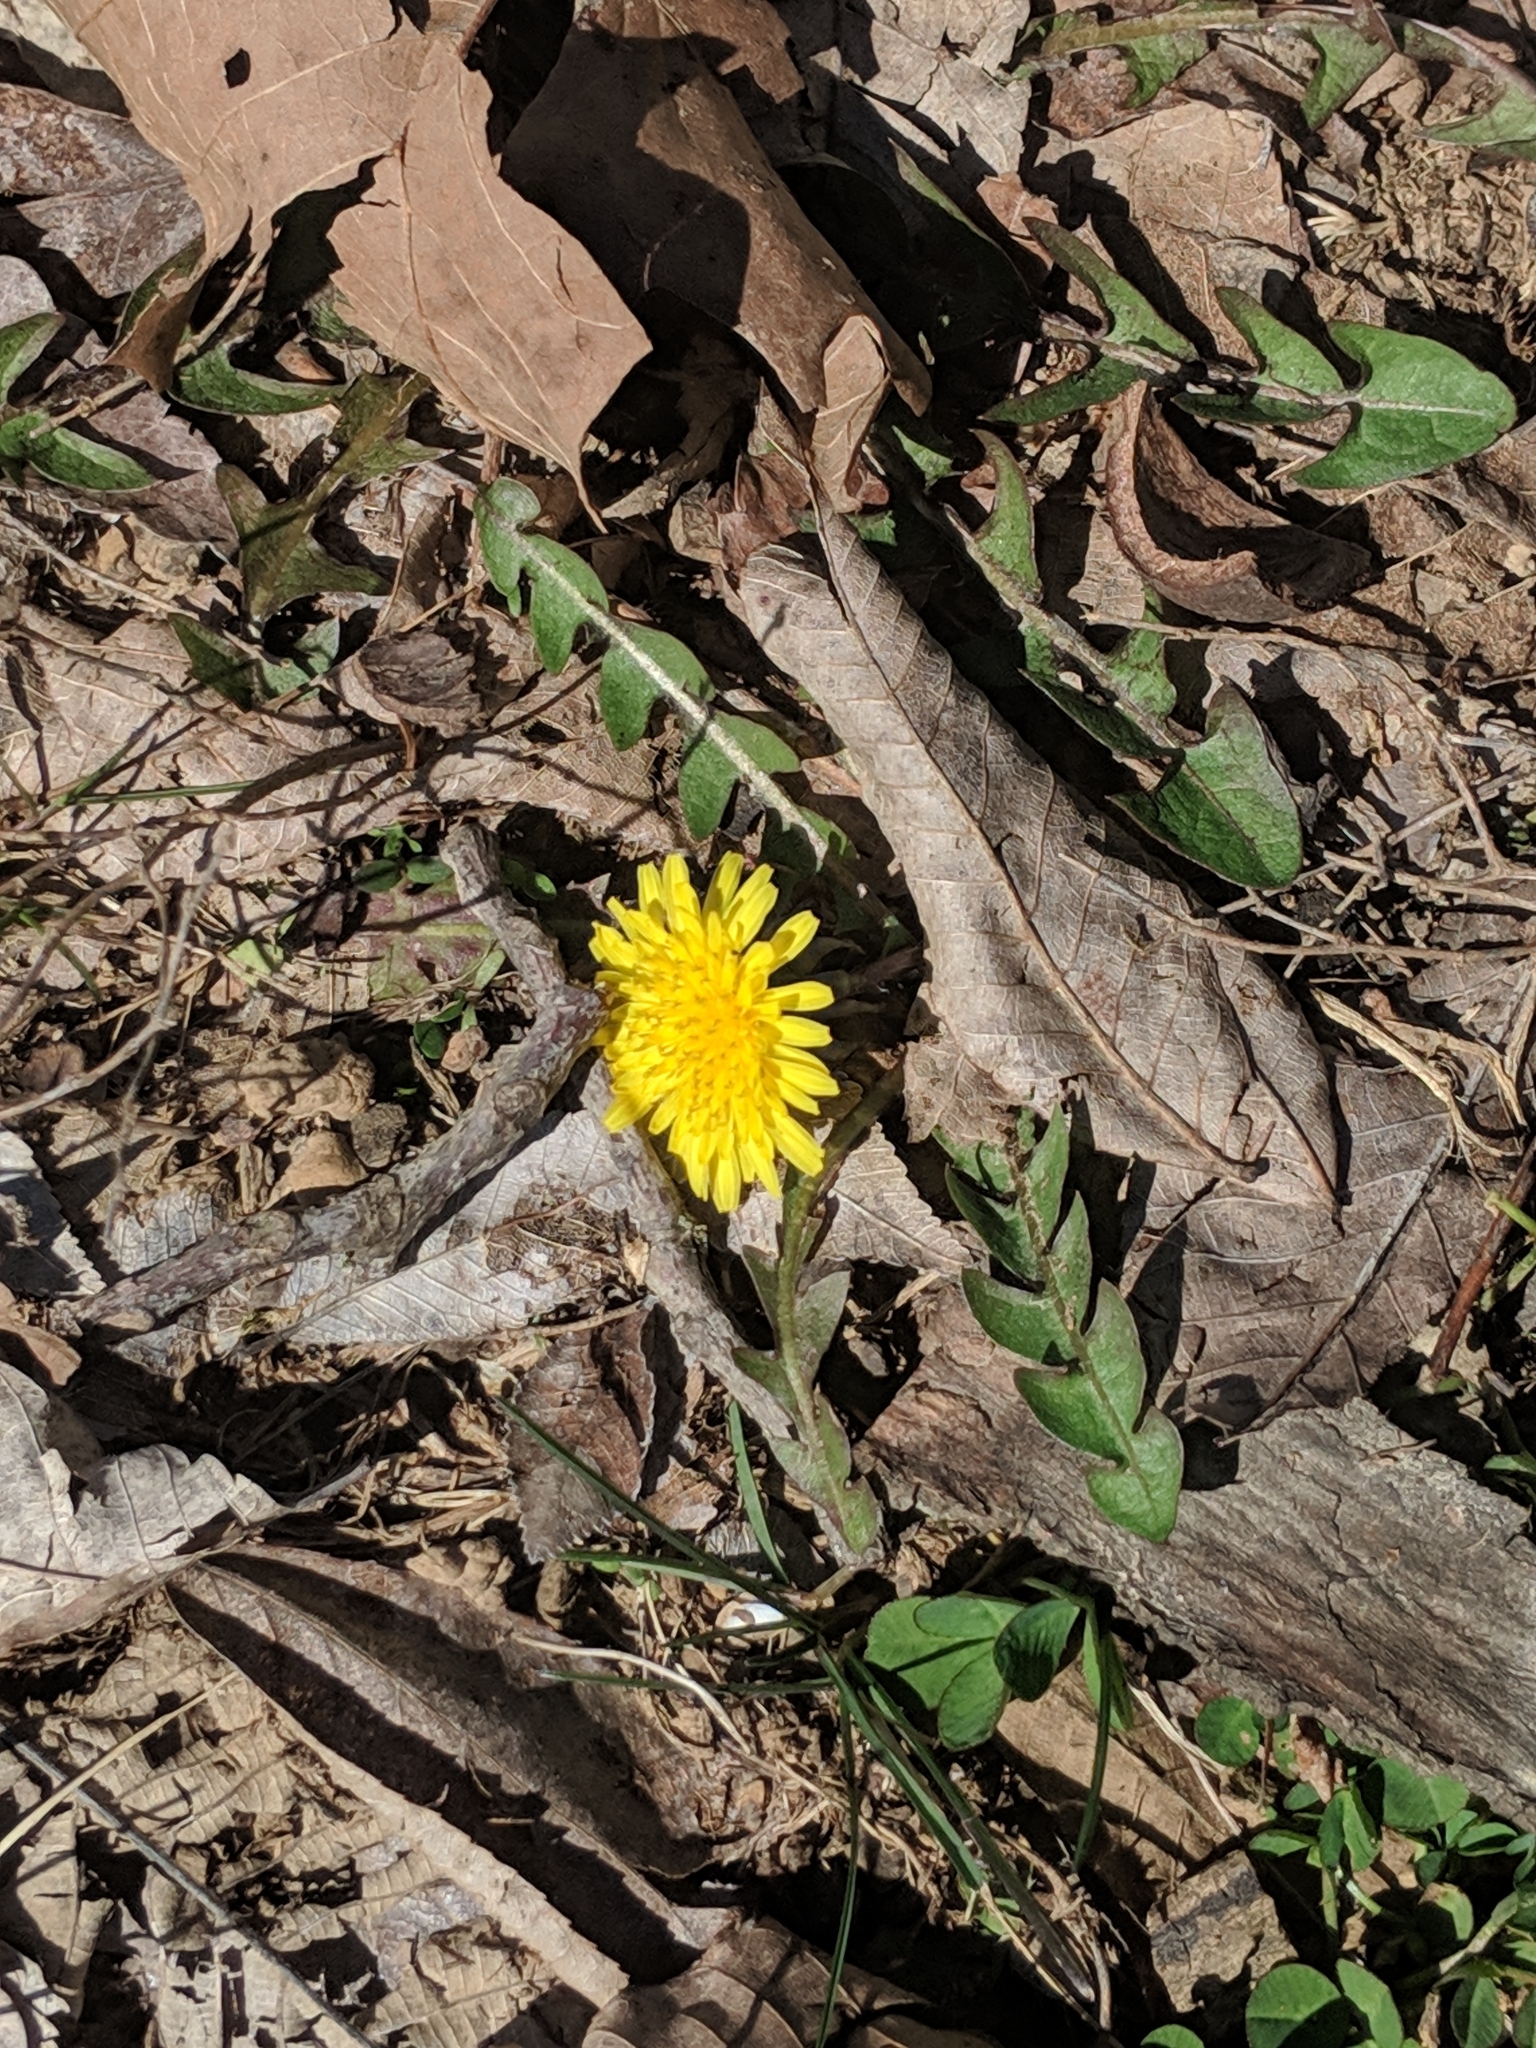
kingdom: Plantae
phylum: Tracheophyta
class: Magnoliopsida
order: Asterales
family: Asteraceae
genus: Taraxacum
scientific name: Taraxacum officinale
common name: Common dandelion
